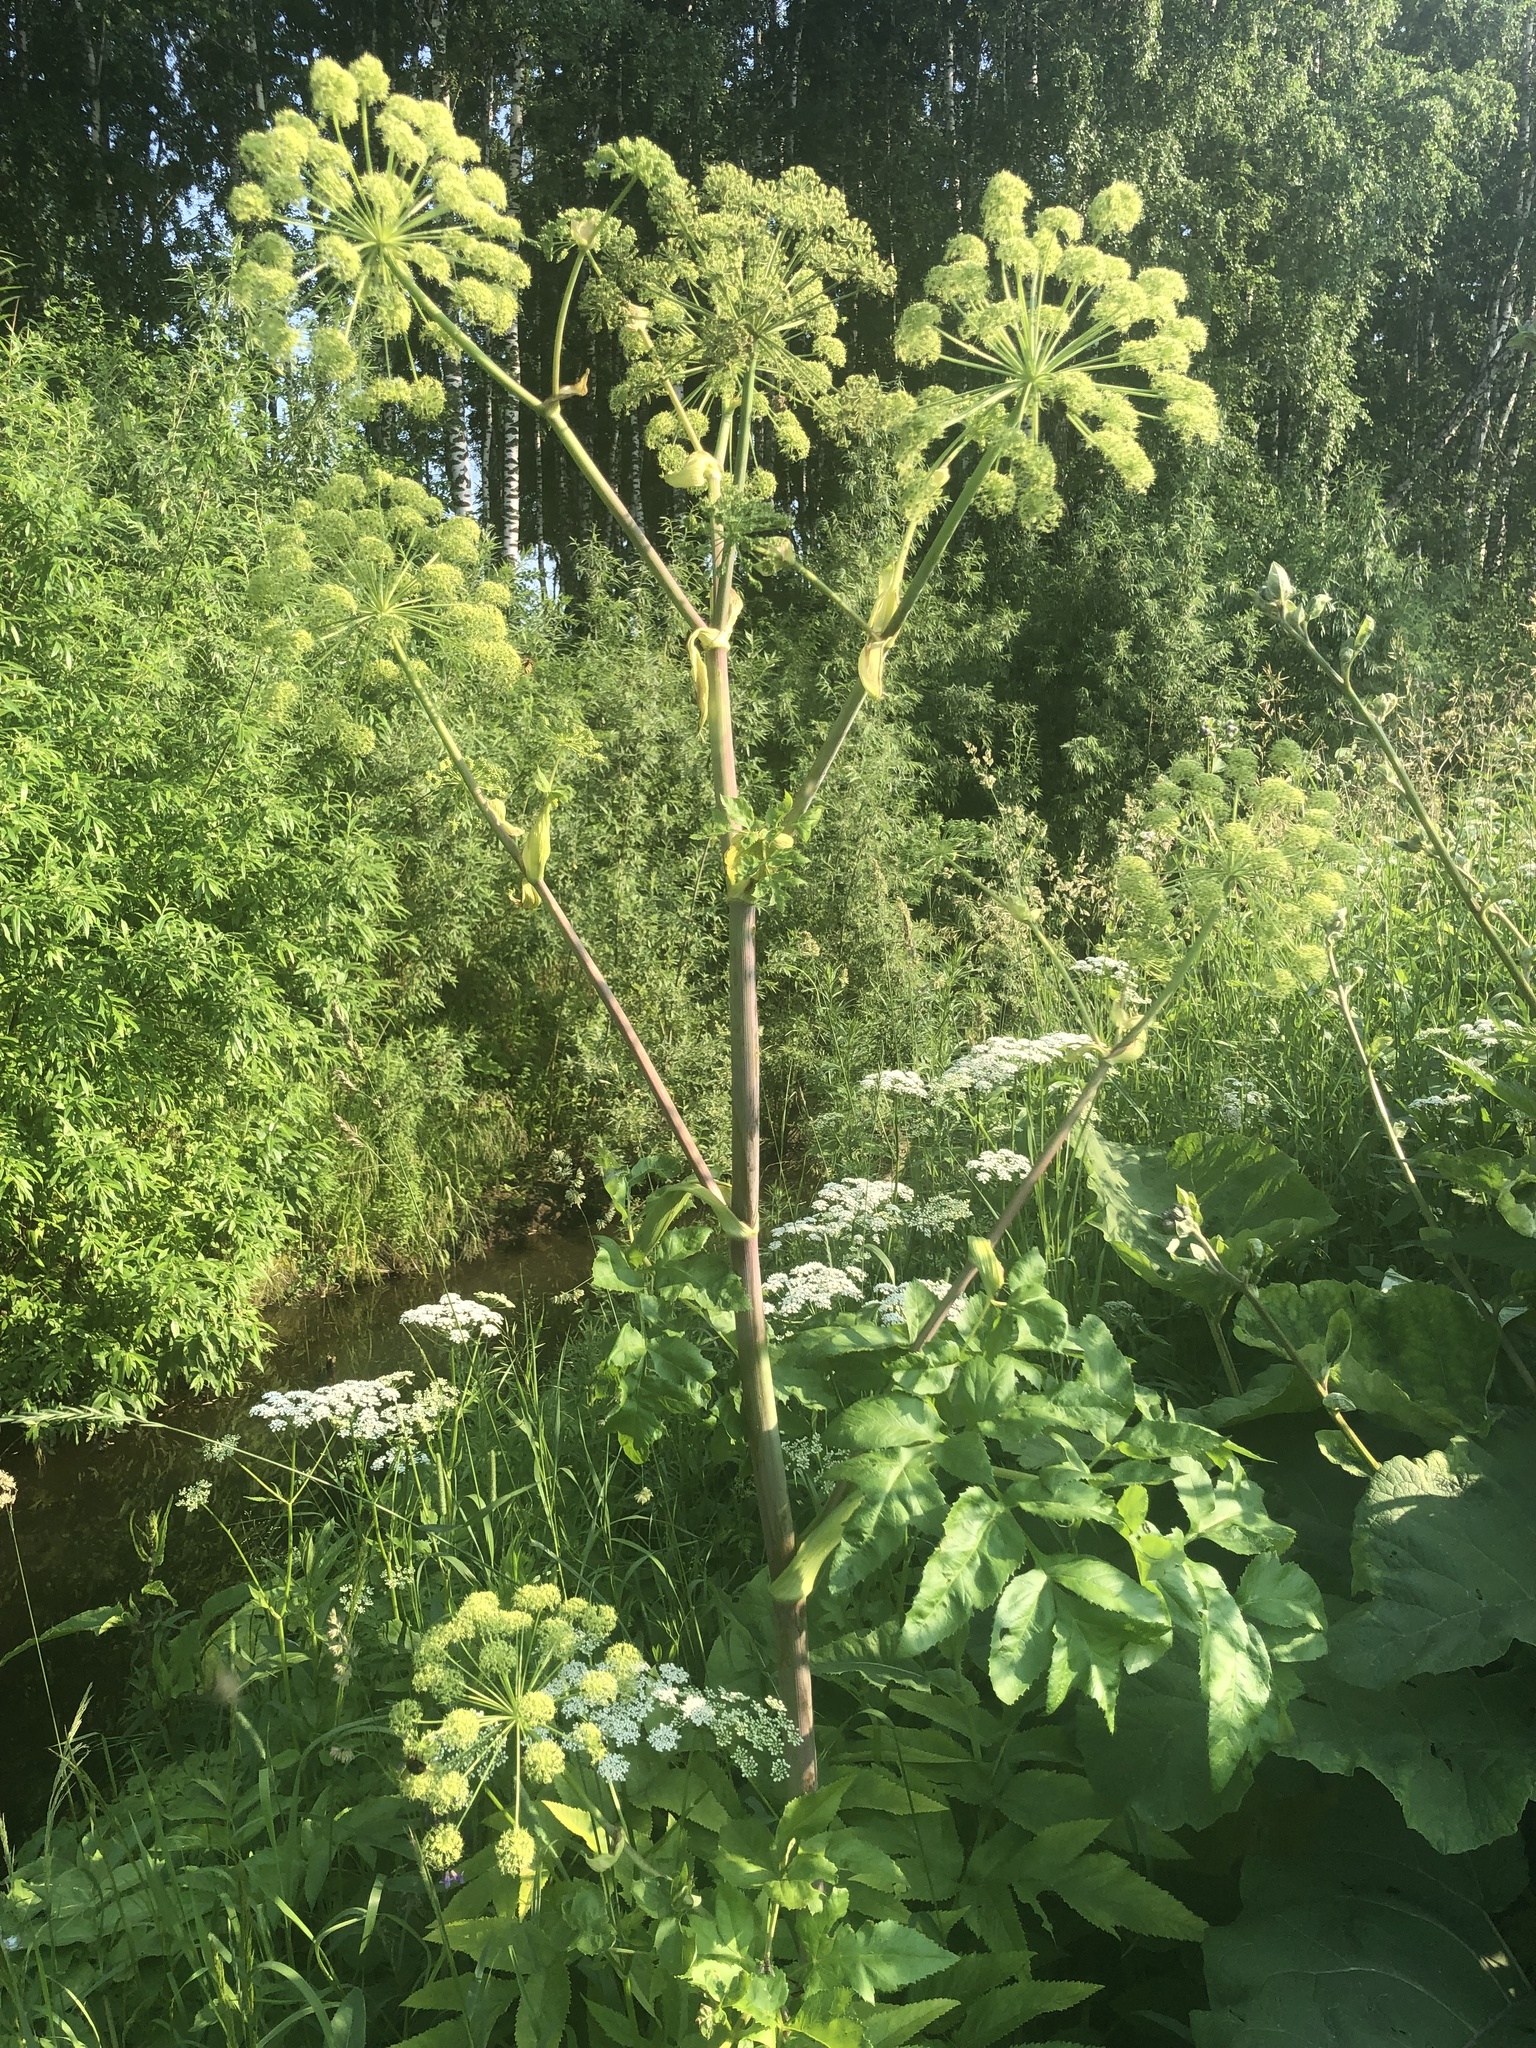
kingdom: Plantae
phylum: Tracheophyta
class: Magnoliopsida
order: Apiales
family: Apiaceae
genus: Angelica
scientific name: Angelica decurrens
